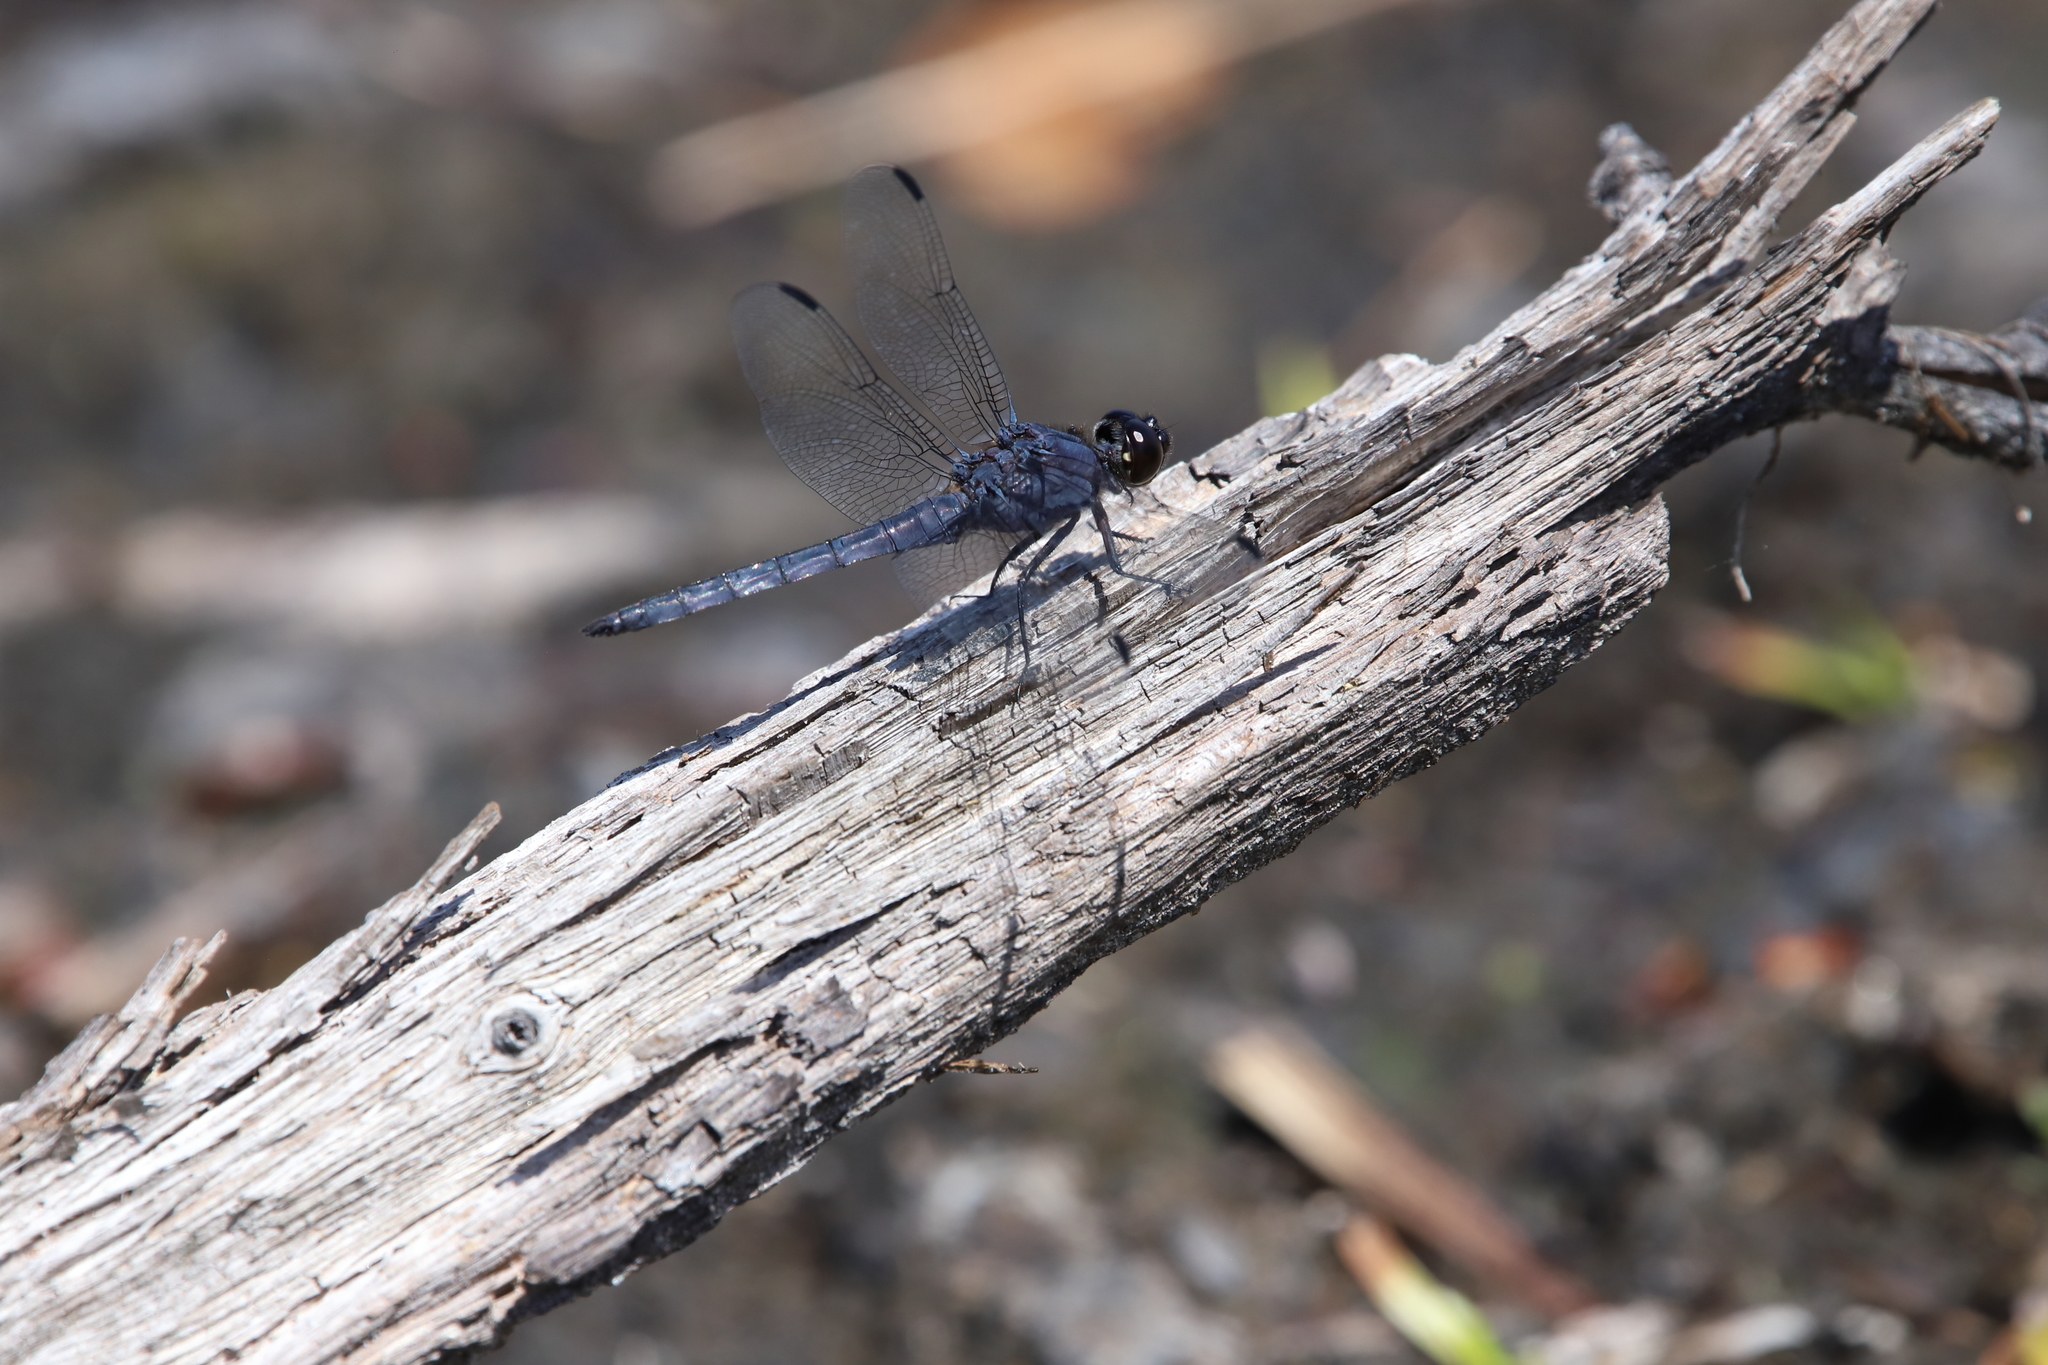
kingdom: Animalia
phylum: Arthropoda
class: Insecta
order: Odonata
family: Libellulidae
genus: Libellula
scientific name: Libellula incesta
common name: Slaty skimmer
